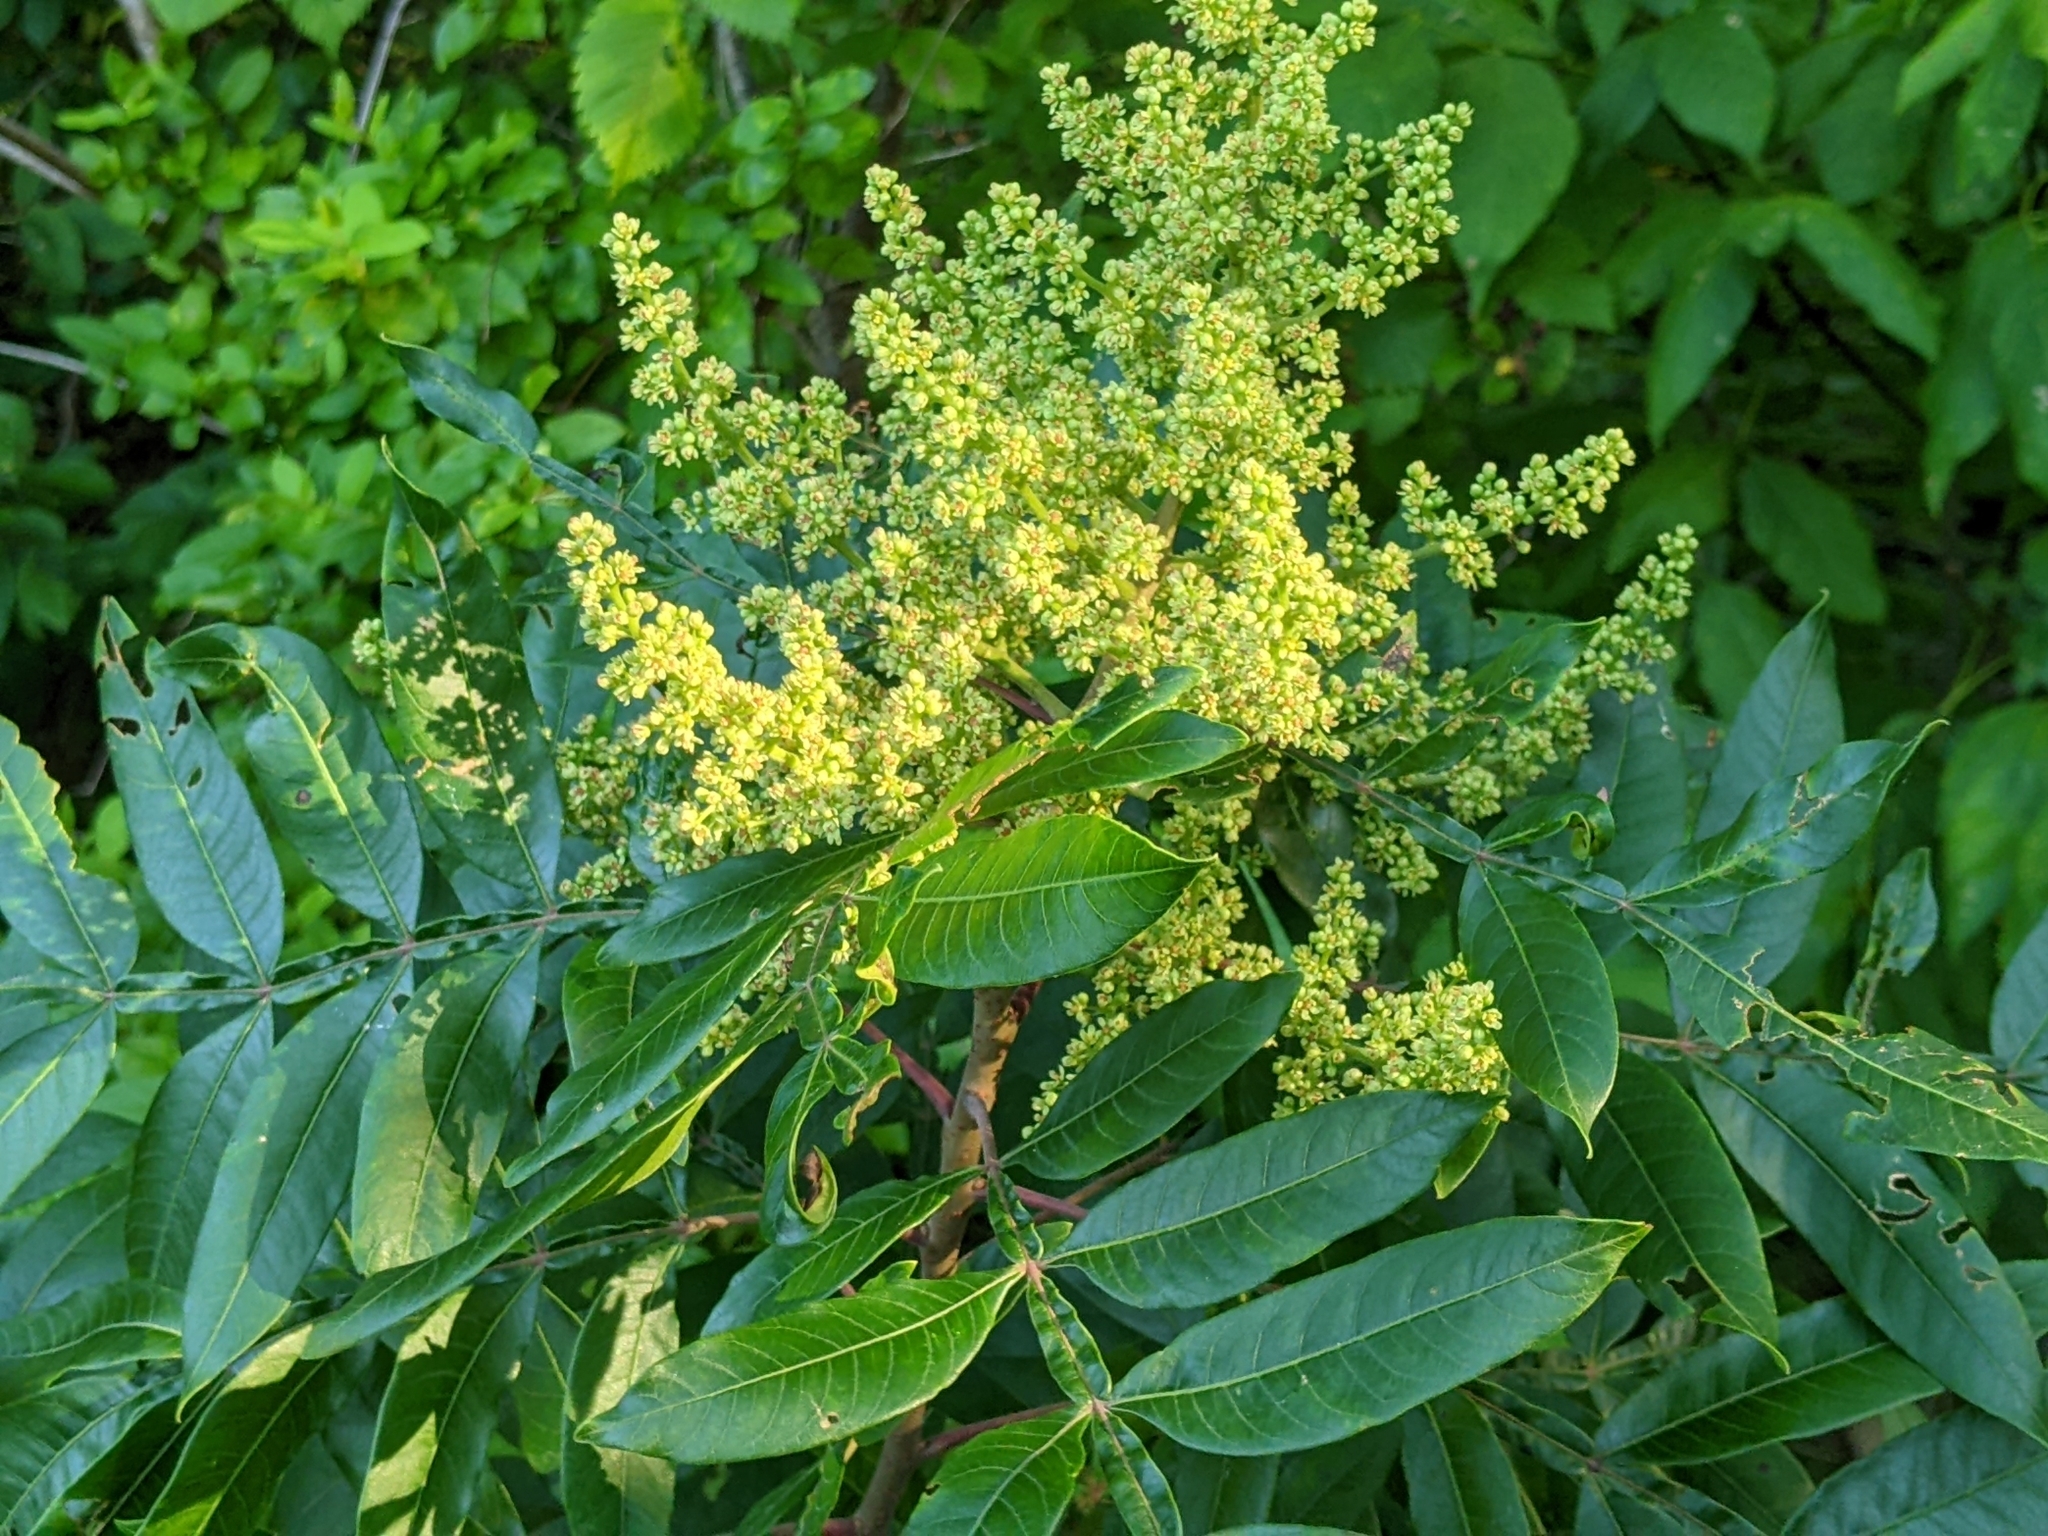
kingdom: Plantae
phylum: Tracheophyta
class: Magnoliopsida
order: Sapindales
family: Anacardiaceae
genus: Rhus
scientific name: Rhus copallina
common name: Shining sumac
